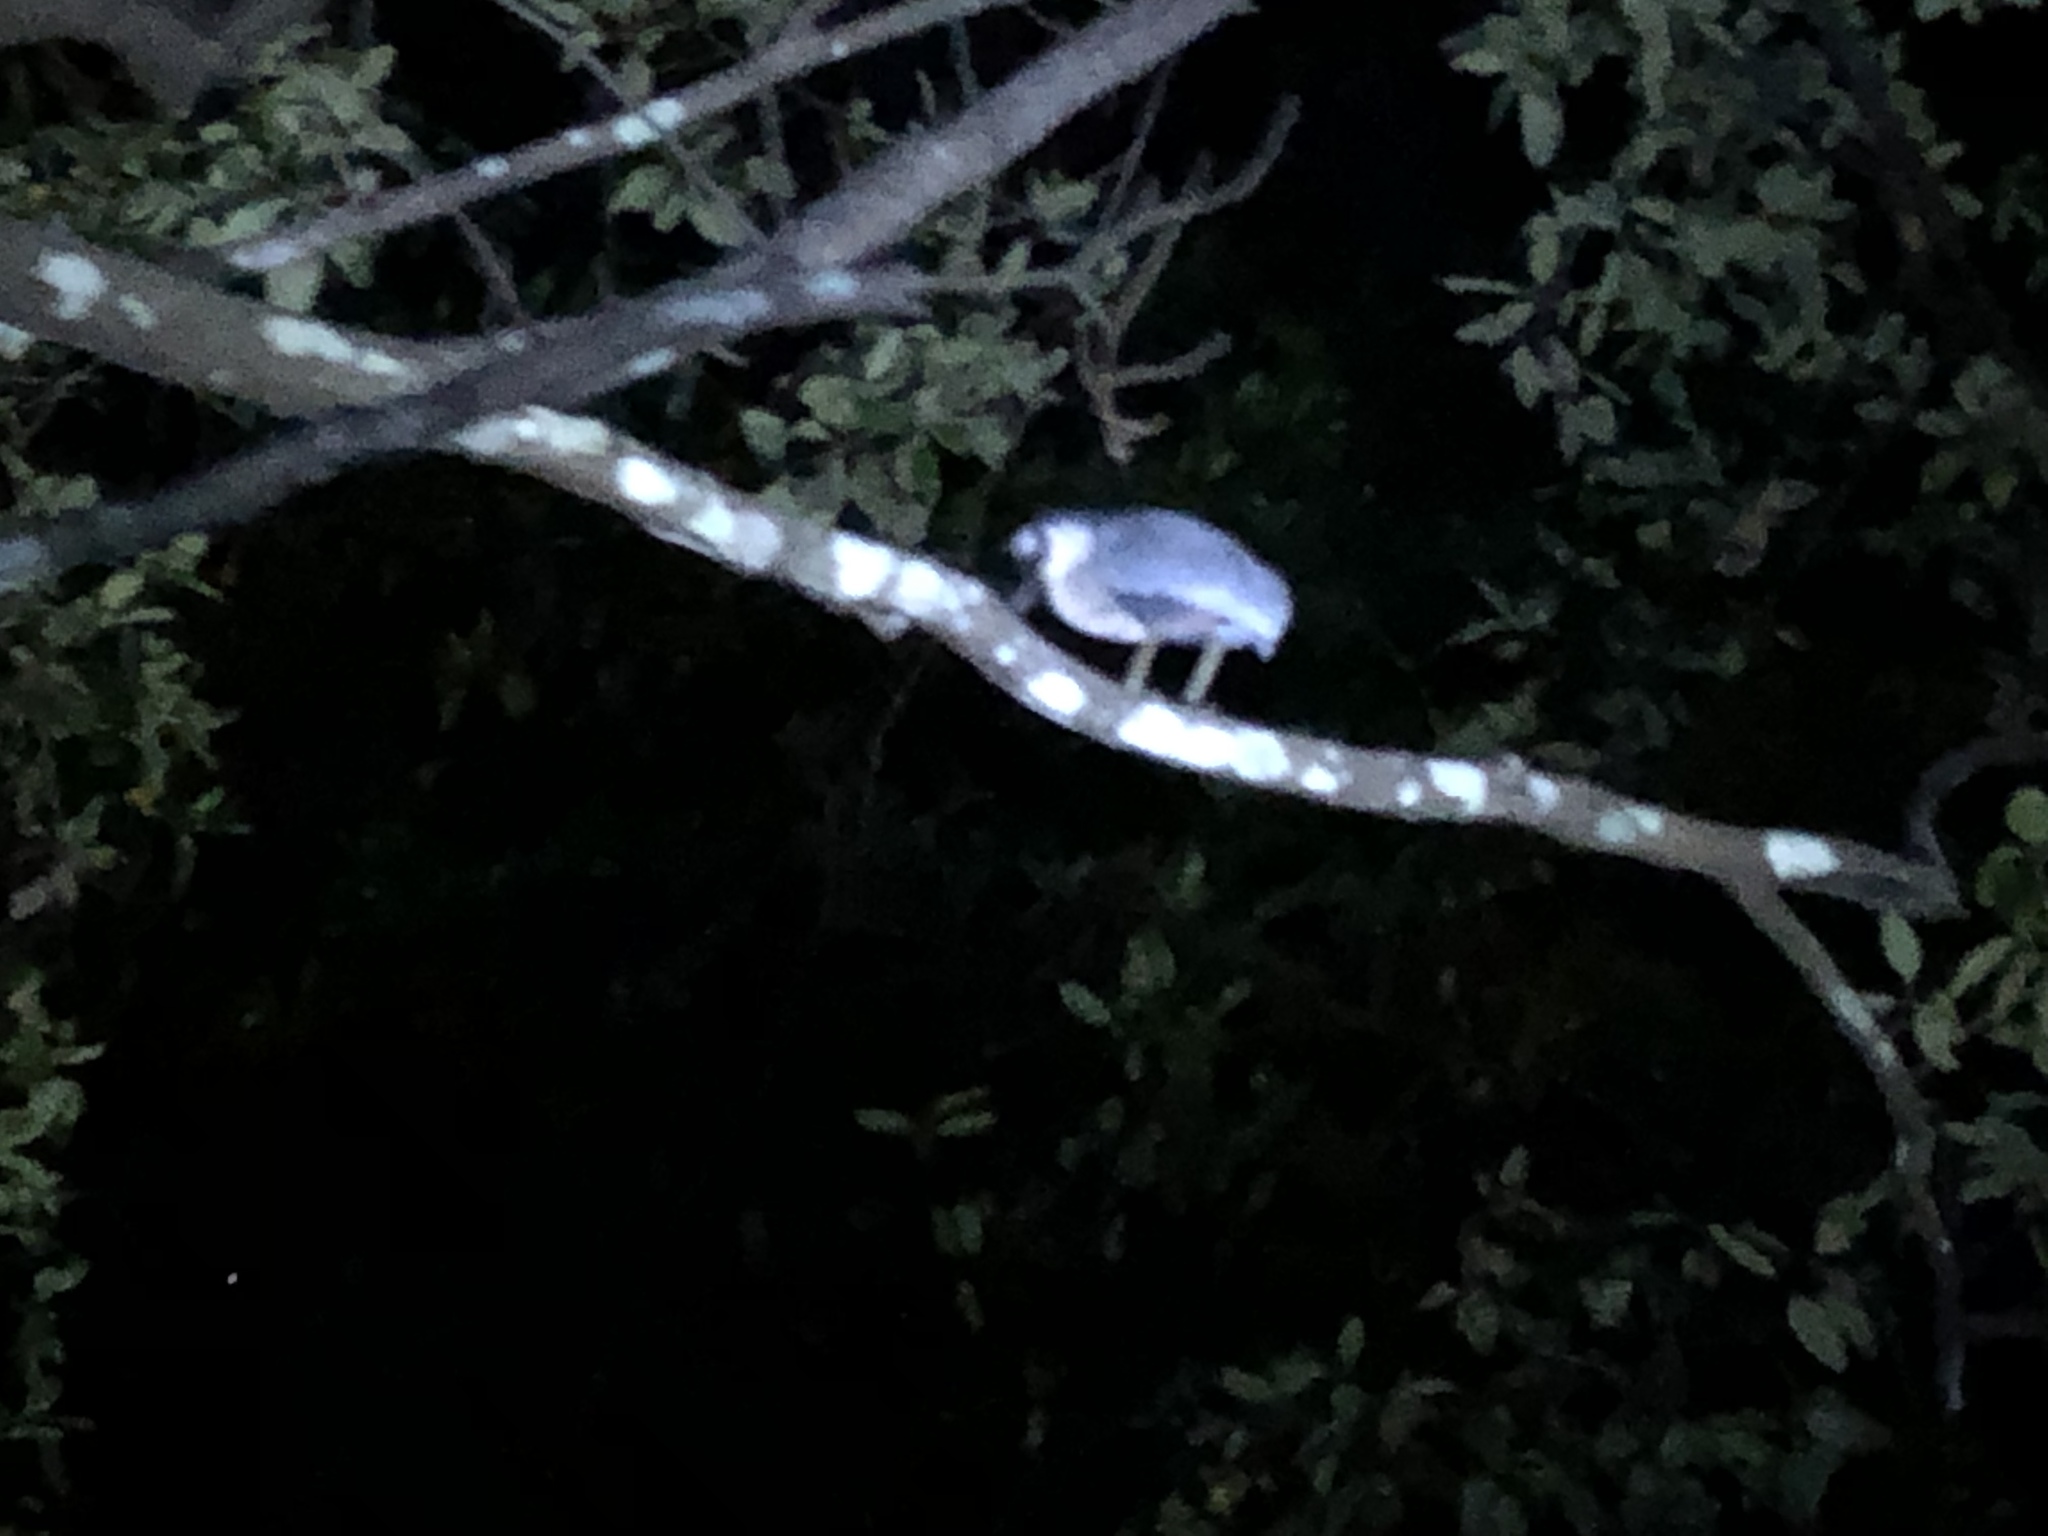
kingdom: Animalia
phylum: Chordata
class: Aves
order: Pelecaniformes
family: Ardeidae
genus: Cochlearius
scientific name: Cochlearius cochlearius
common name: Boat-billed heron
